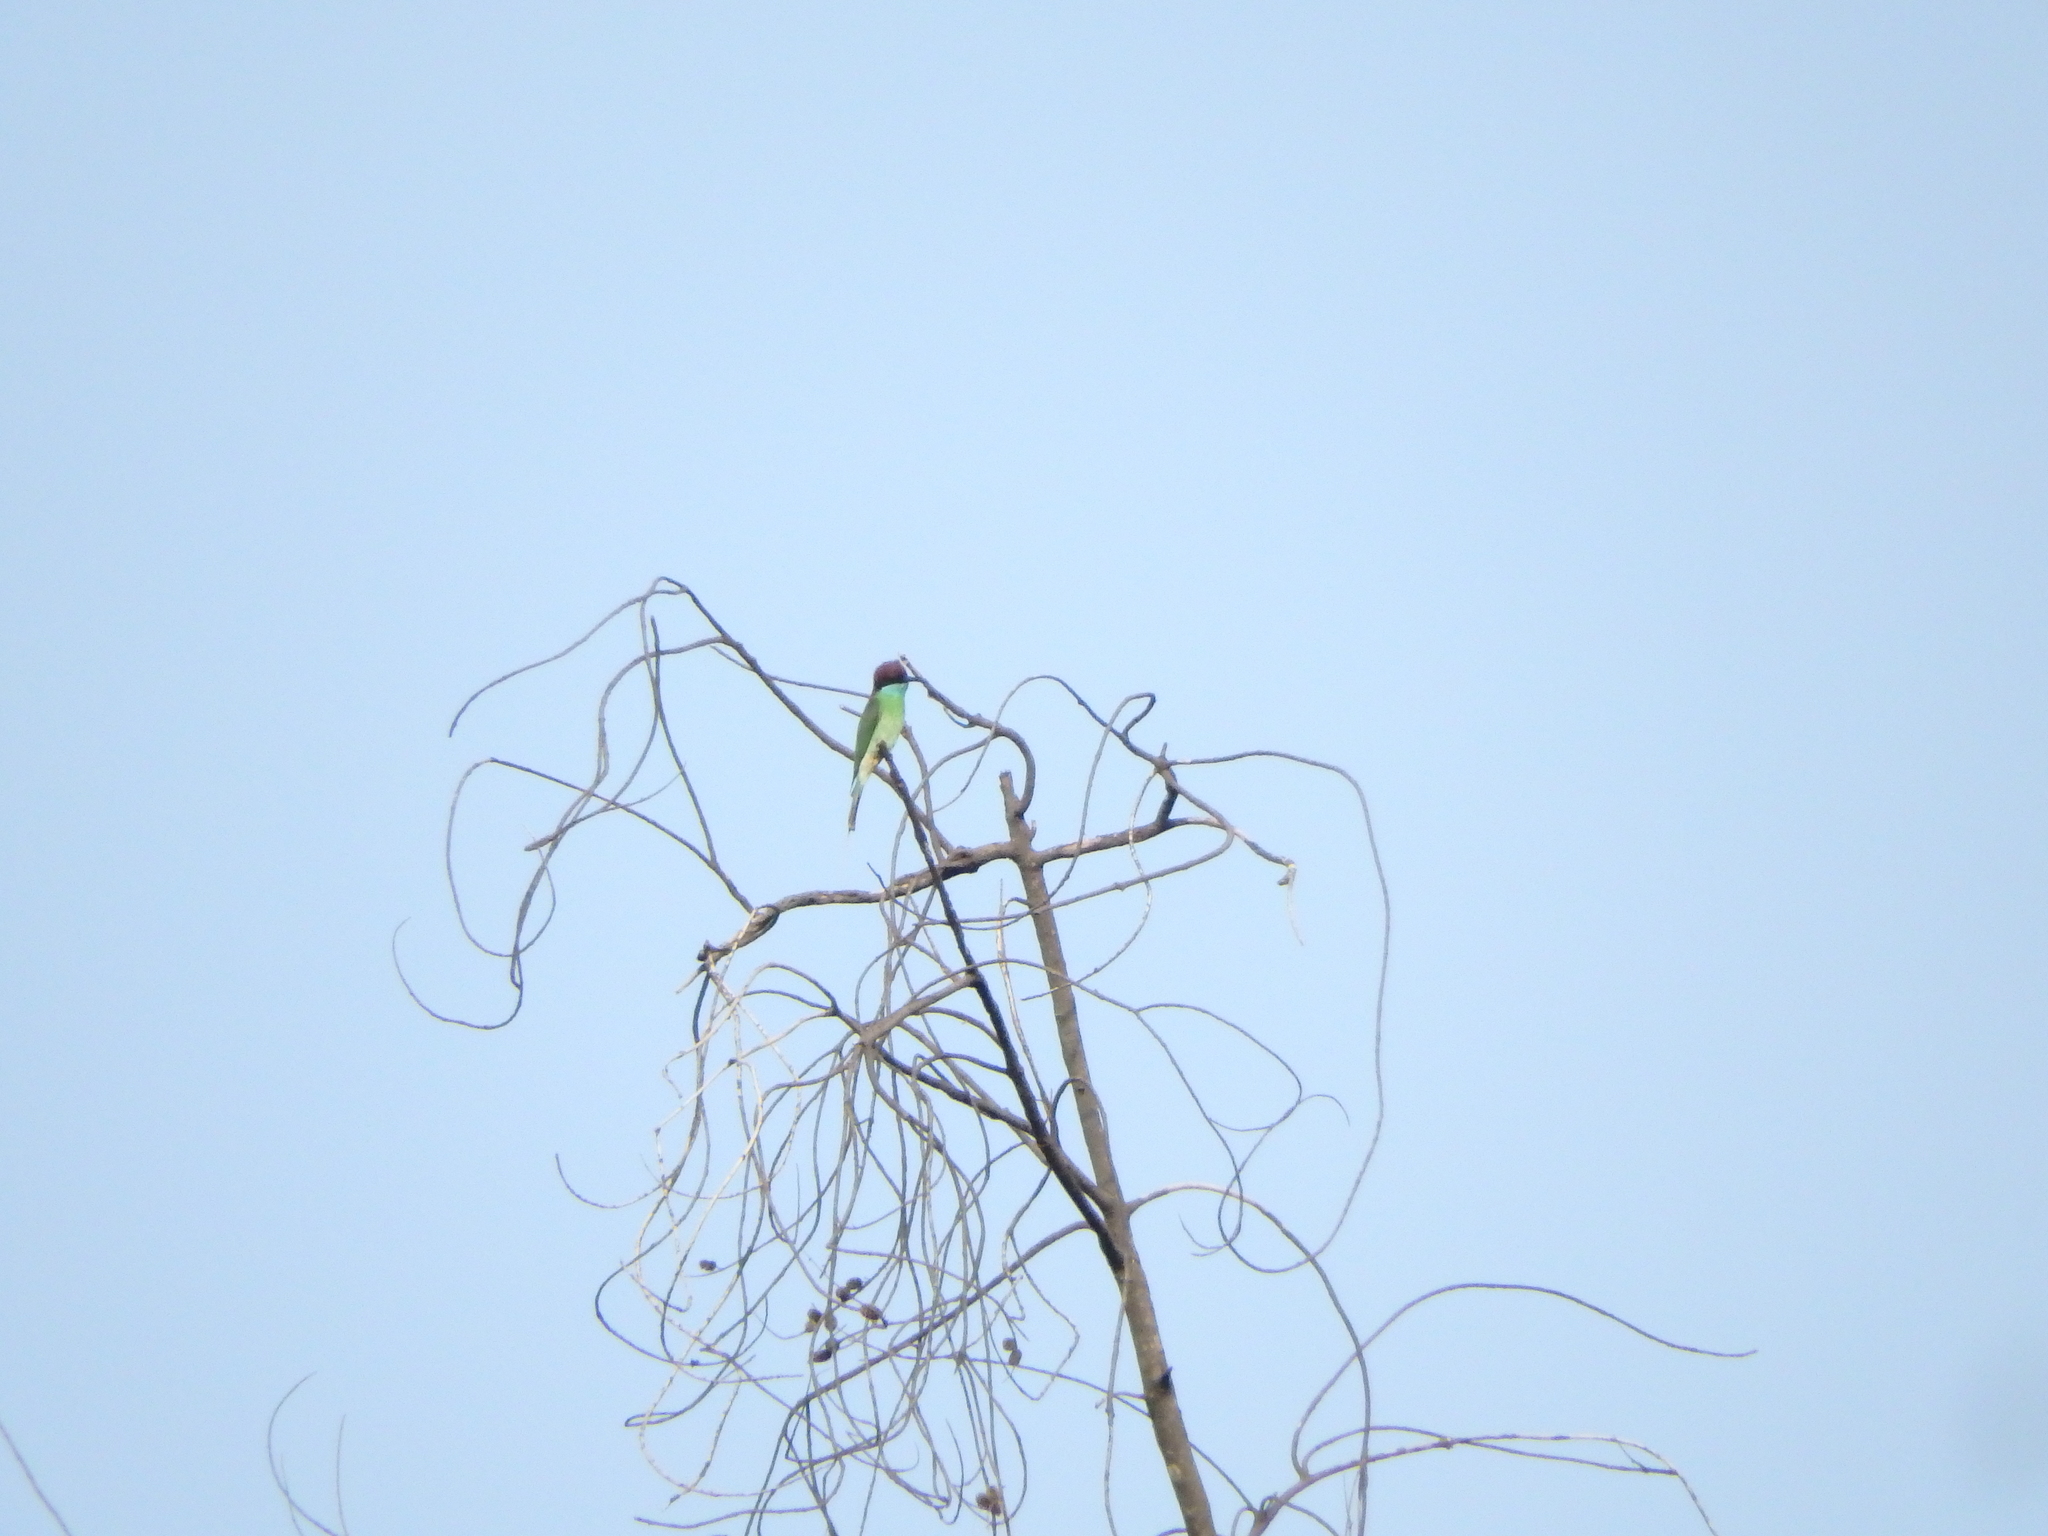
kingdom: Animalia
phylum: Chordata
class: Aves
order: Coraciiformes
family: Meropidae
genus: Merops
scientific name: Merops viridis
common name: Blue-throated bee-eater
